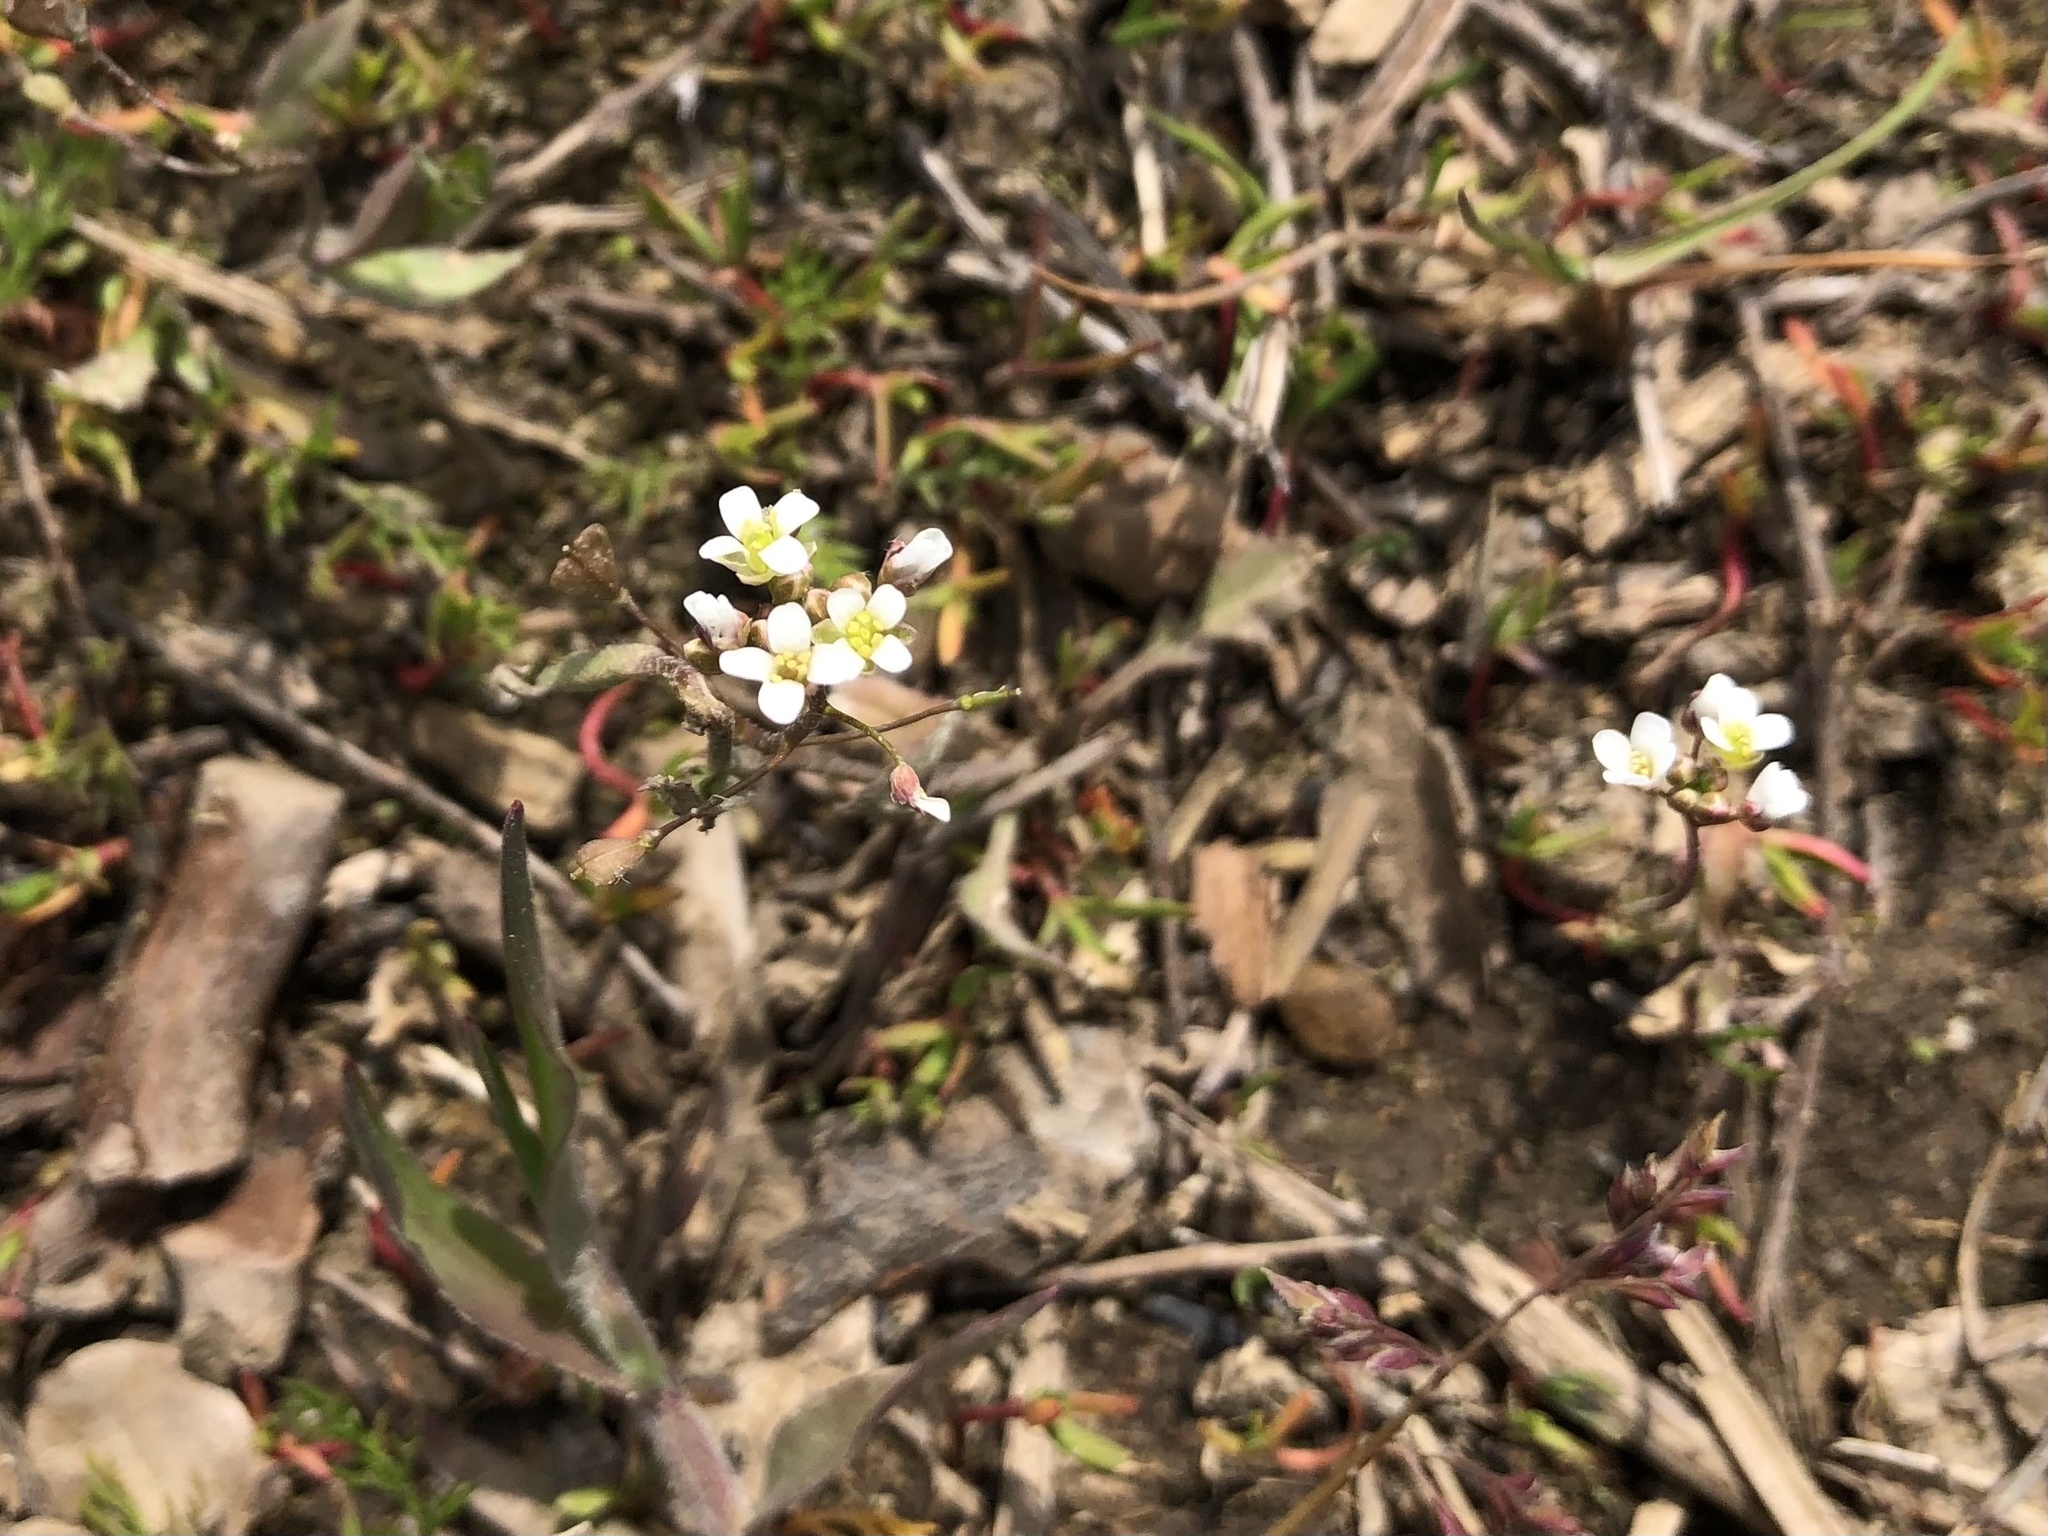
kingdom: Plantae
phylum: Tracheophyta
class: Magnoliopsida
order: Brassicales
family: Brassicaceae
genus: Capsella
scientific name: Capsella bursa-pastoris
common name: Shepherd's purse
